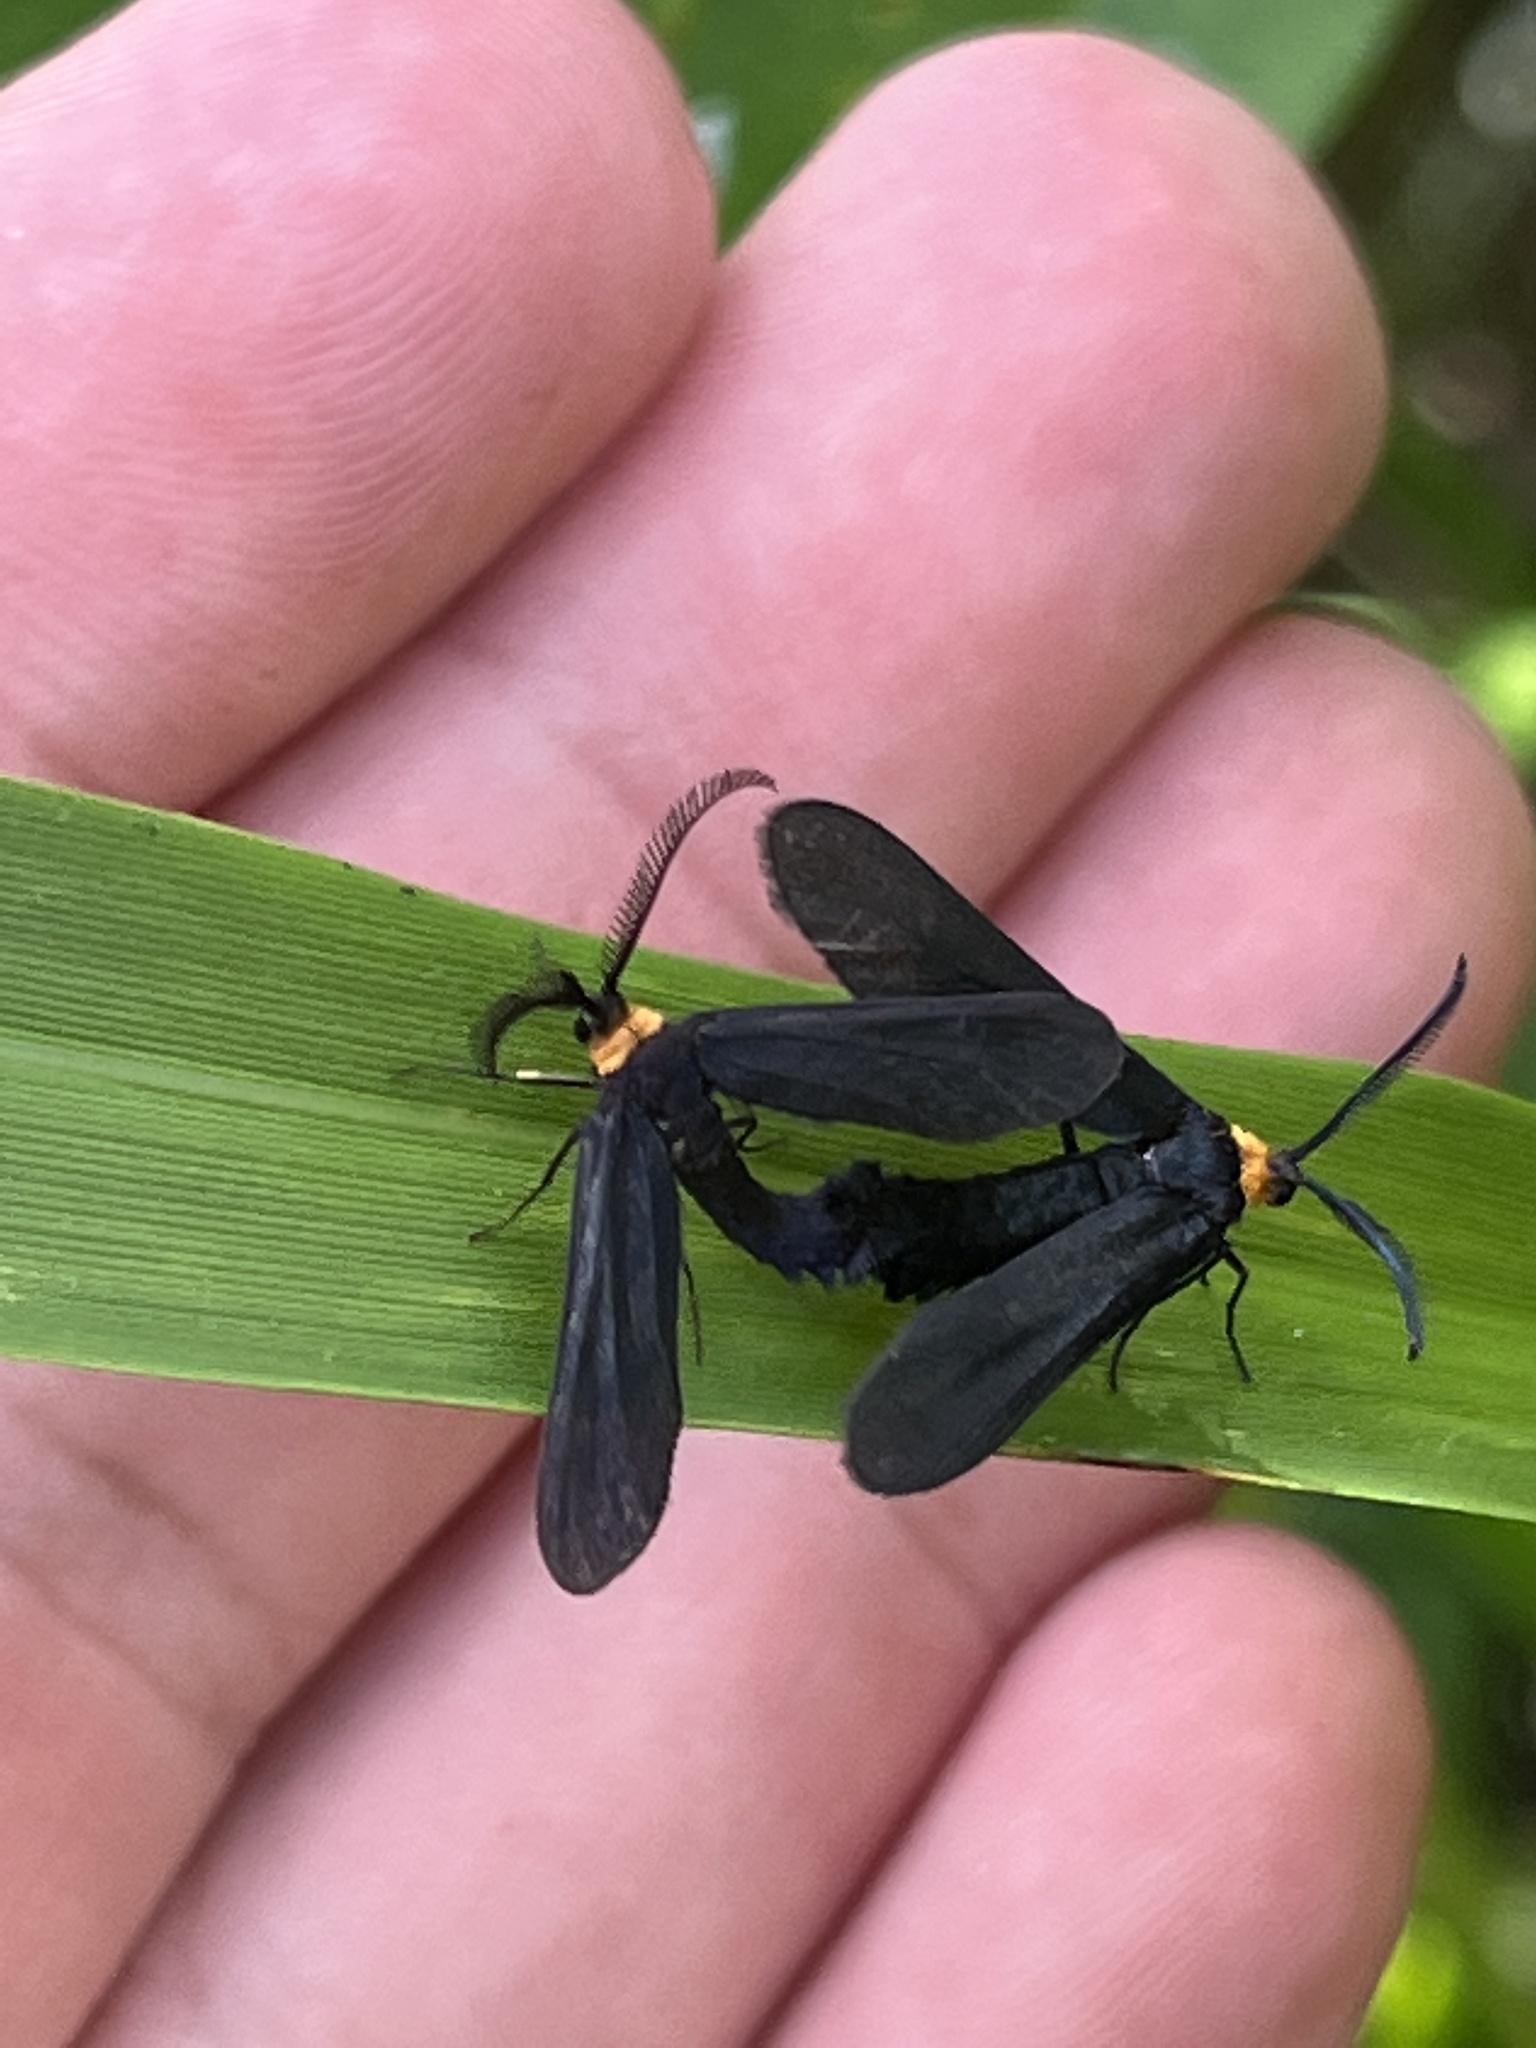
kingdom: Animalia
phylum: Arthropoda
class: Insecta
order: Lepidoptera
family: Zygaenidae
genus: Harrisina
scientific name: Harrisina americana
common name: Grapeleaf skeletonizer moth
